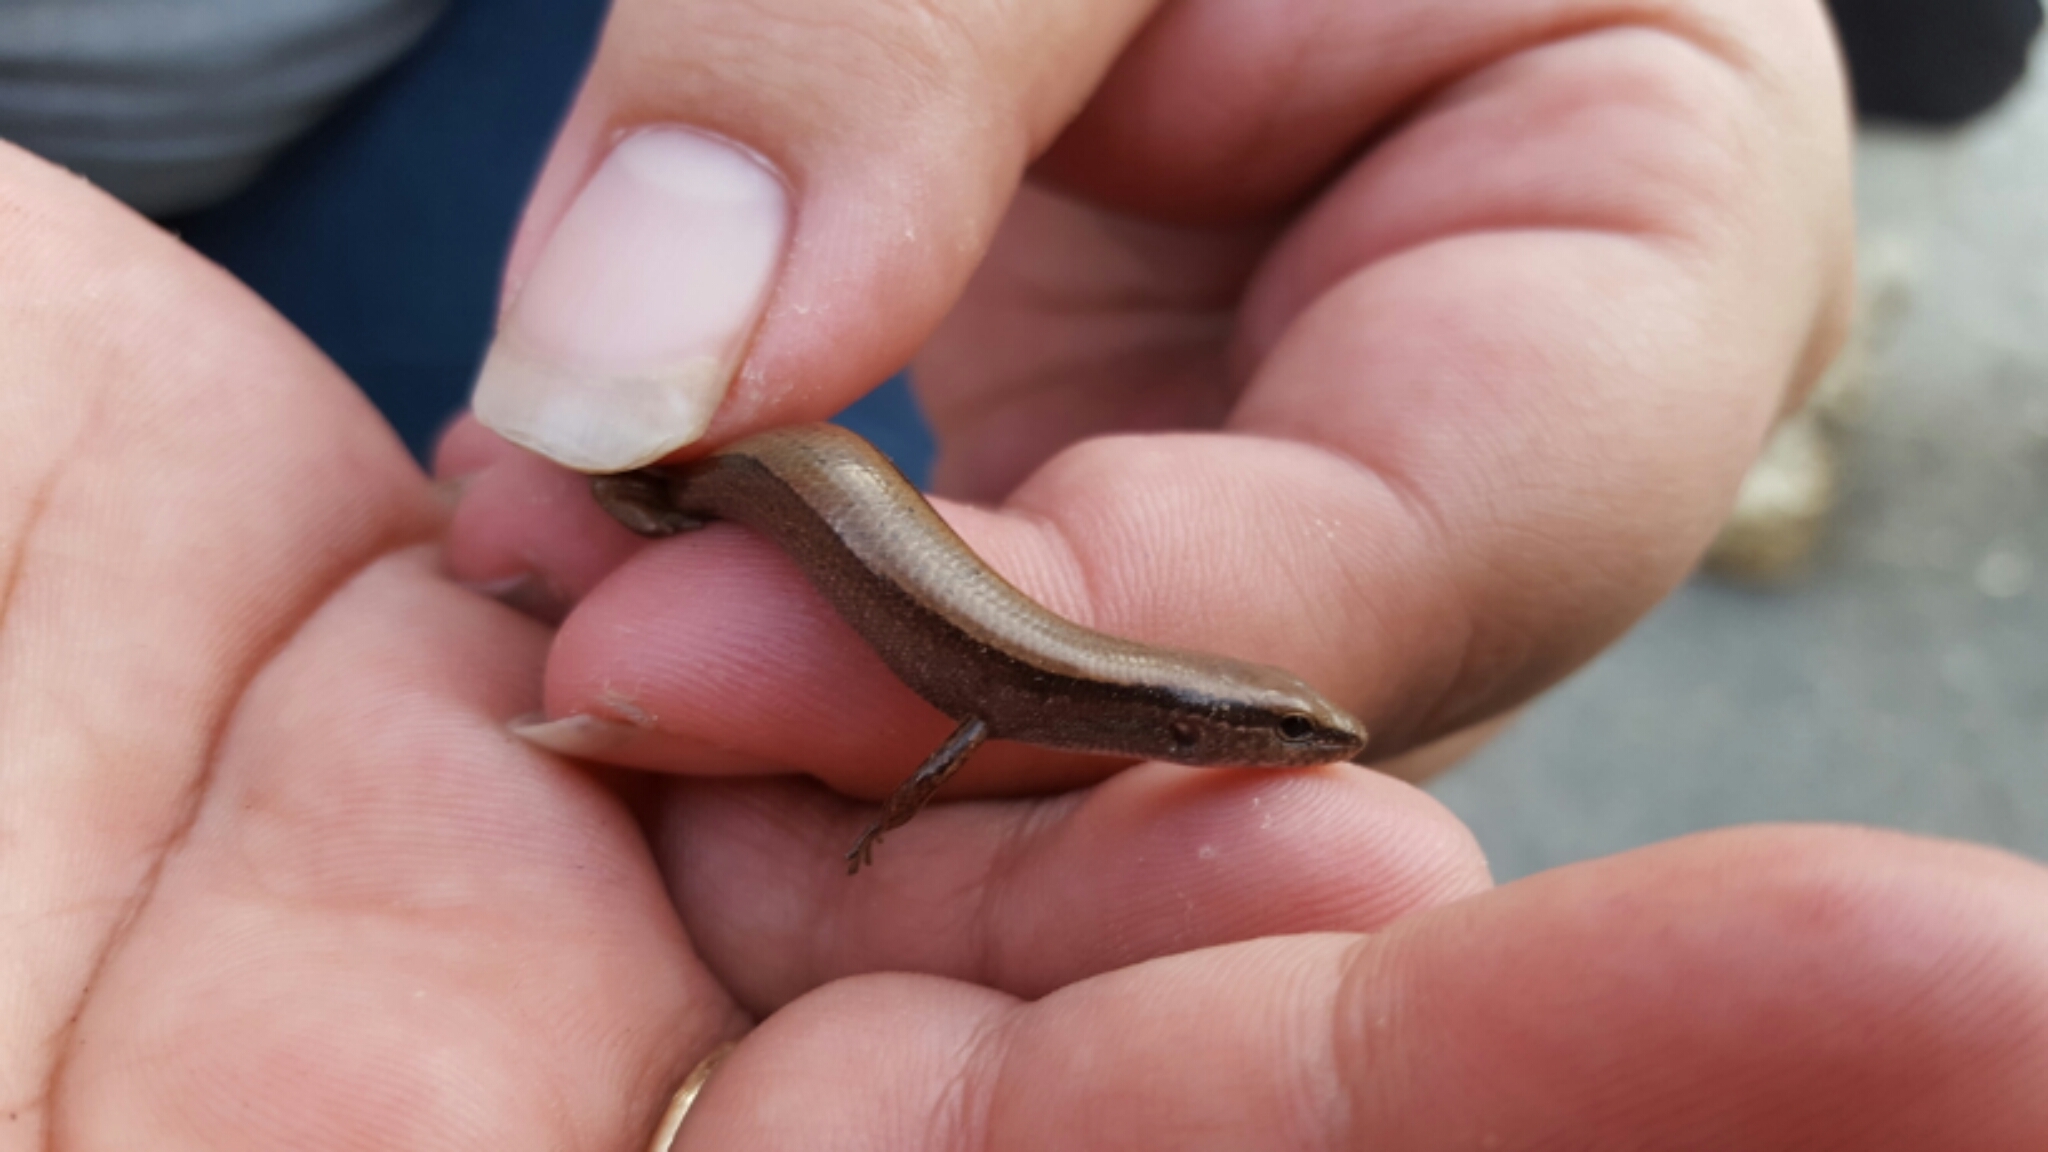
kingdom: Animalia
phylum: Chordata
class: Squamata
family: Scincidae
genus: Scincella
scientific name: Scincella lateralis
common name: Ground skink
